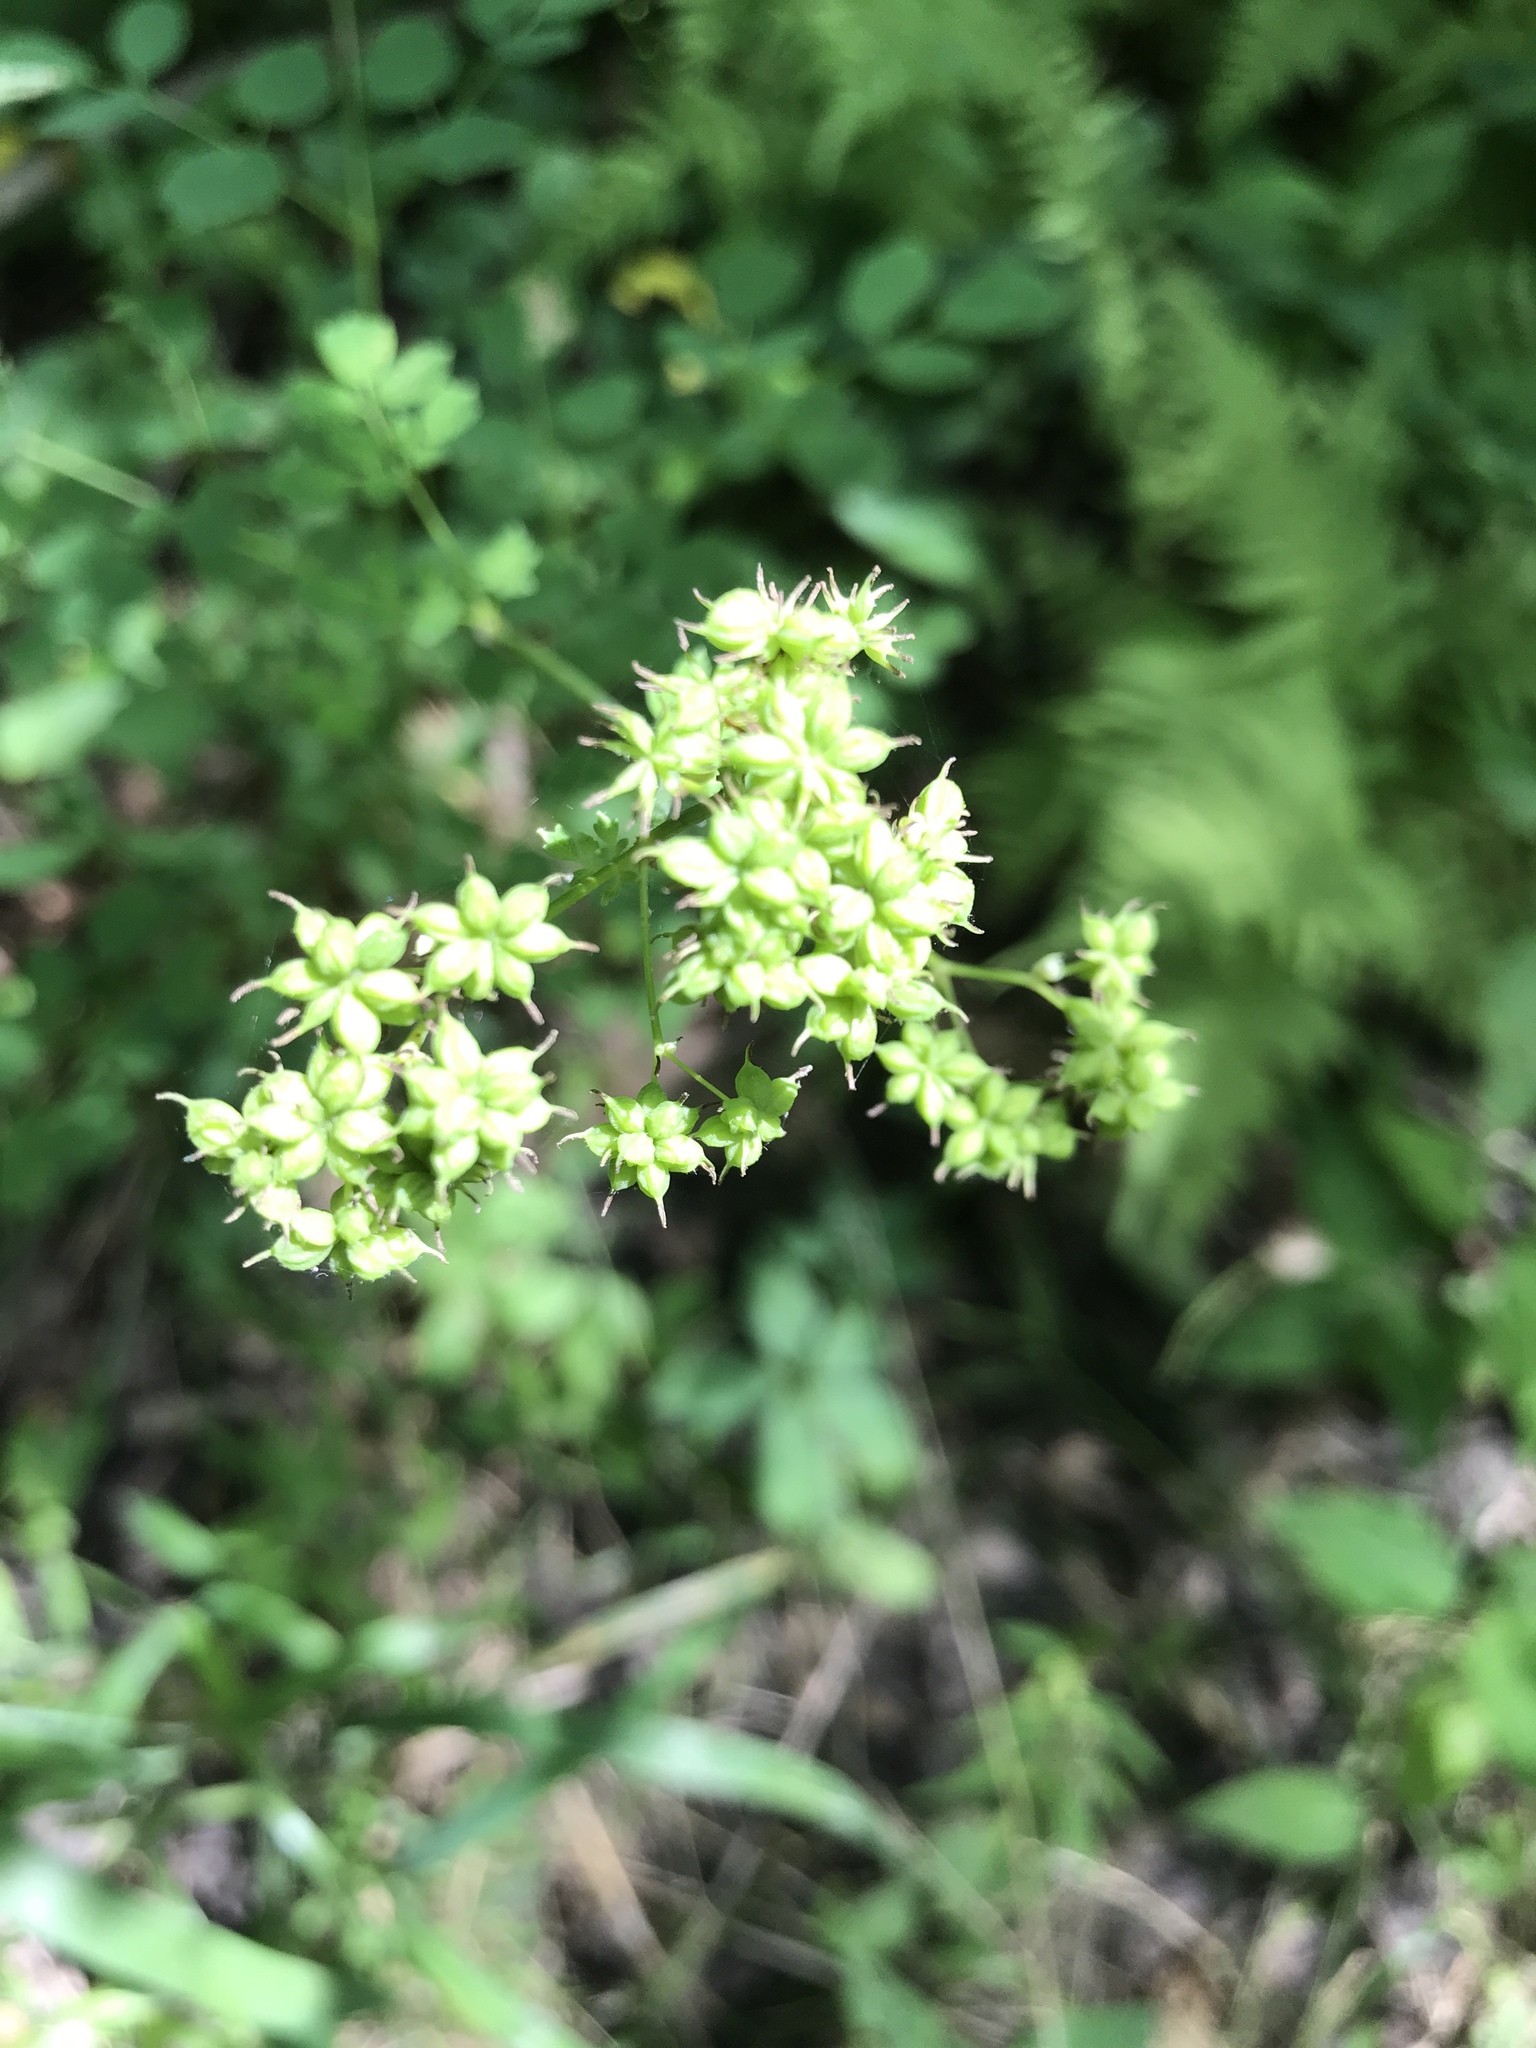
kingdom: Plantae
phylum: Tracheophyta
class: Magnoliopsida
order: Ranunculales
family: Ranunculaceae
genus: Thalictrum
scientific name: Thalictrum pubescens
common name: King-of-the-meadow
